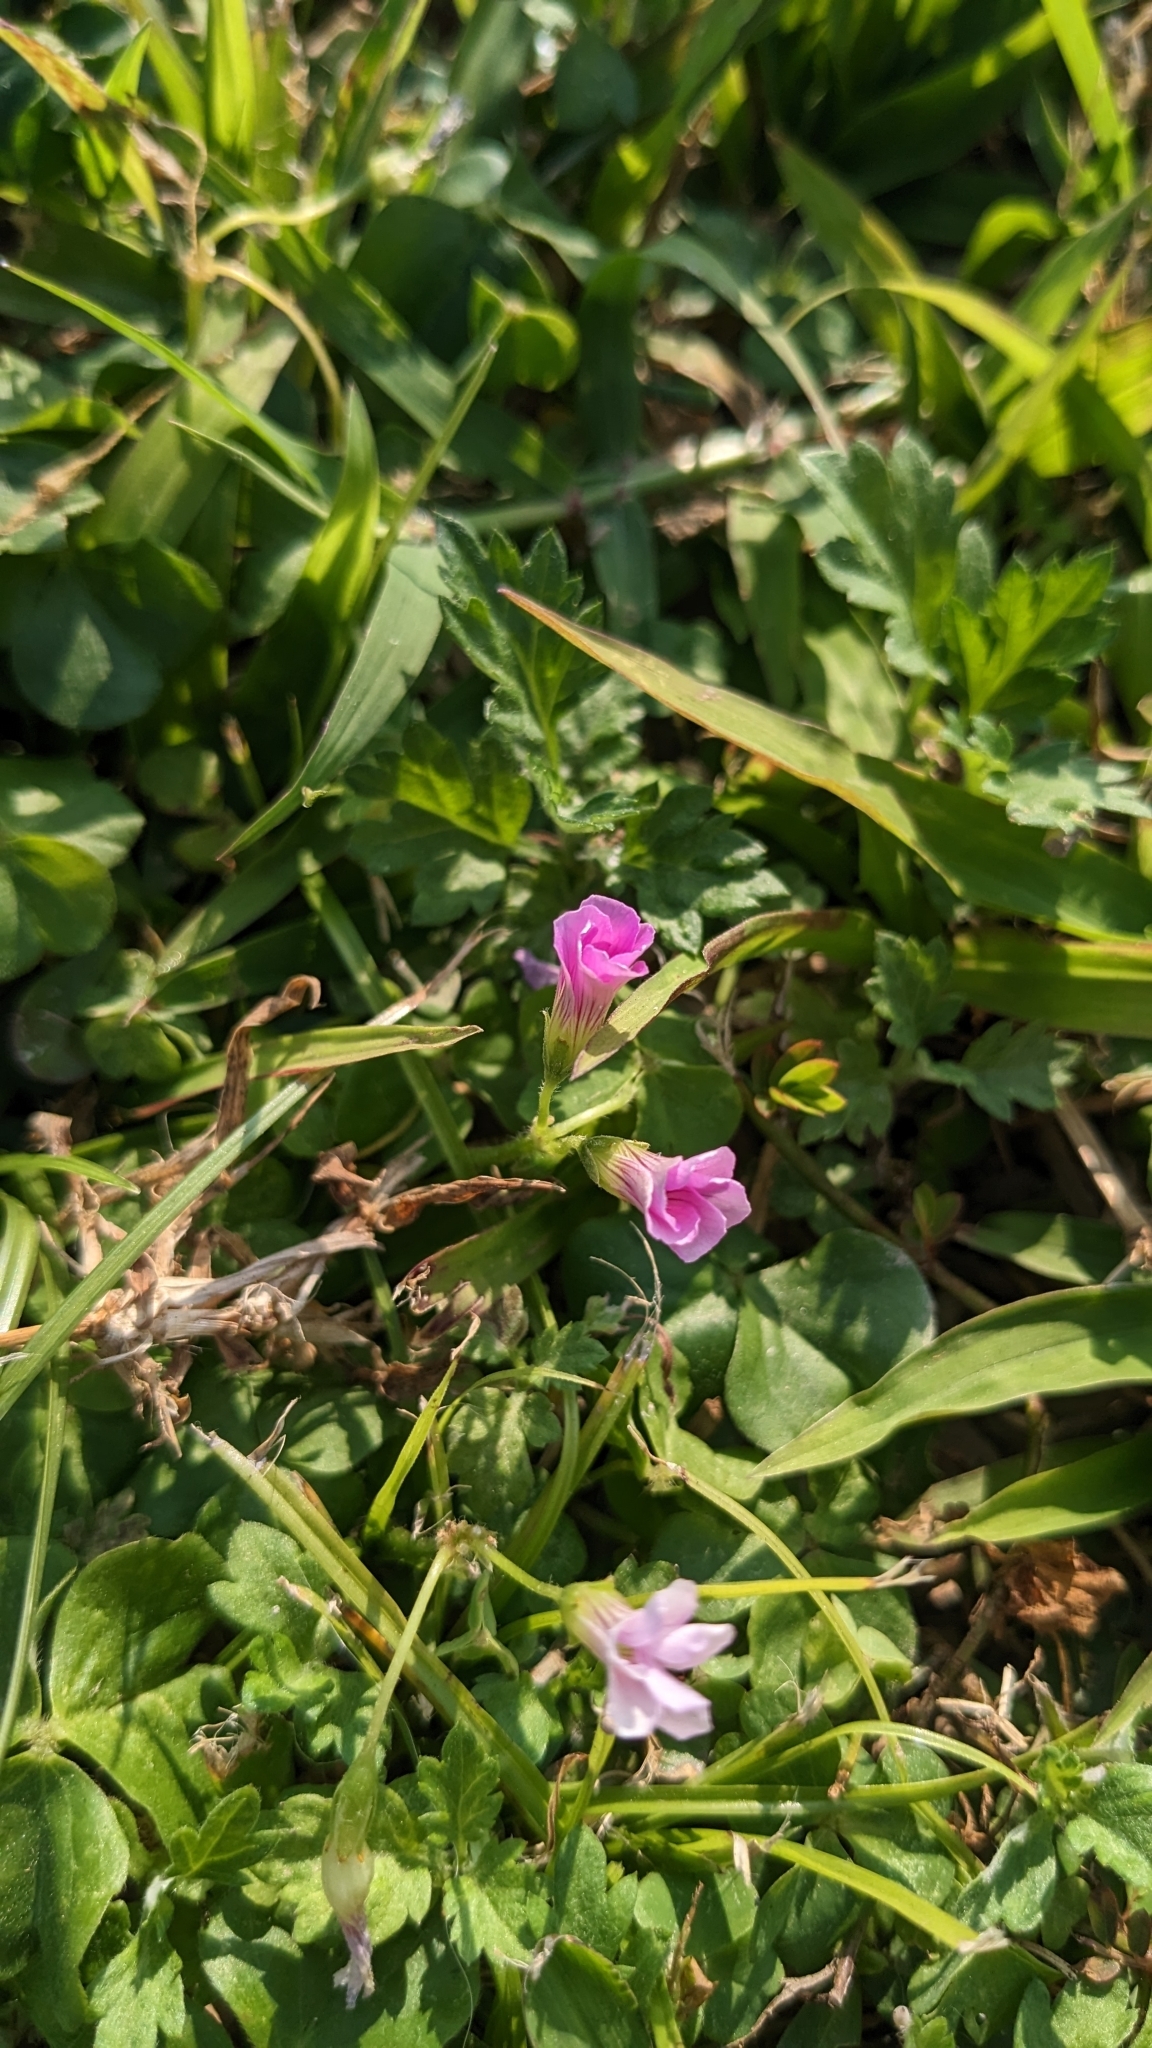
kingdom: Plantae
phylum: Tracheophyta
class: Magnoliopsida
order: Oxalidales
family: Oxalidaceae
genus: Oxalis
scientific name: Oxalis debilis
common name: Large-flowered pink-sorrel
